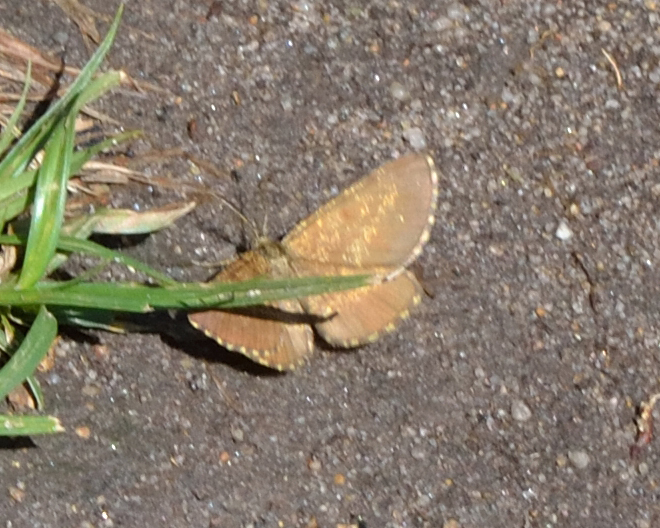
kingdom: Animalia
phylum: Arthropoda
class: Insecta
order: Lepidoptera
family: Geometridae
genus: Ematurga
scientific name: Ematurga atomaria
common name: Common heath
